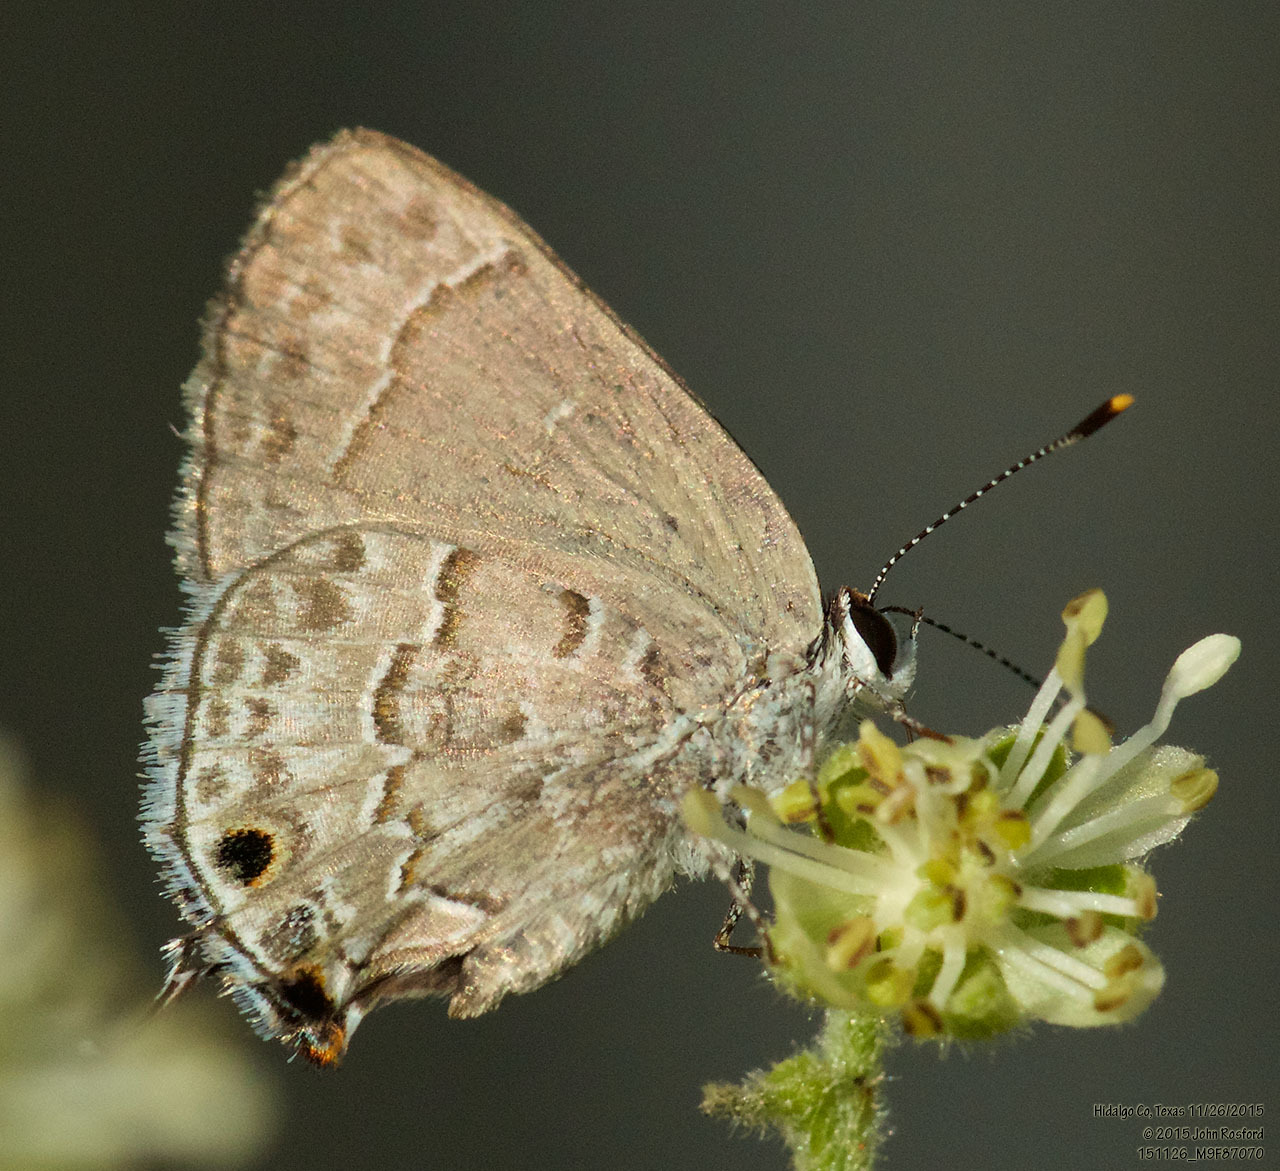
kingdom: Animalia
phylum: Arthropoda
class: Insecta
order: Lepidoptera
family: Lycaenidae
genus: Strymon
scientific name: Strymon alea
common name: Lacey's scrub-hairstreak
